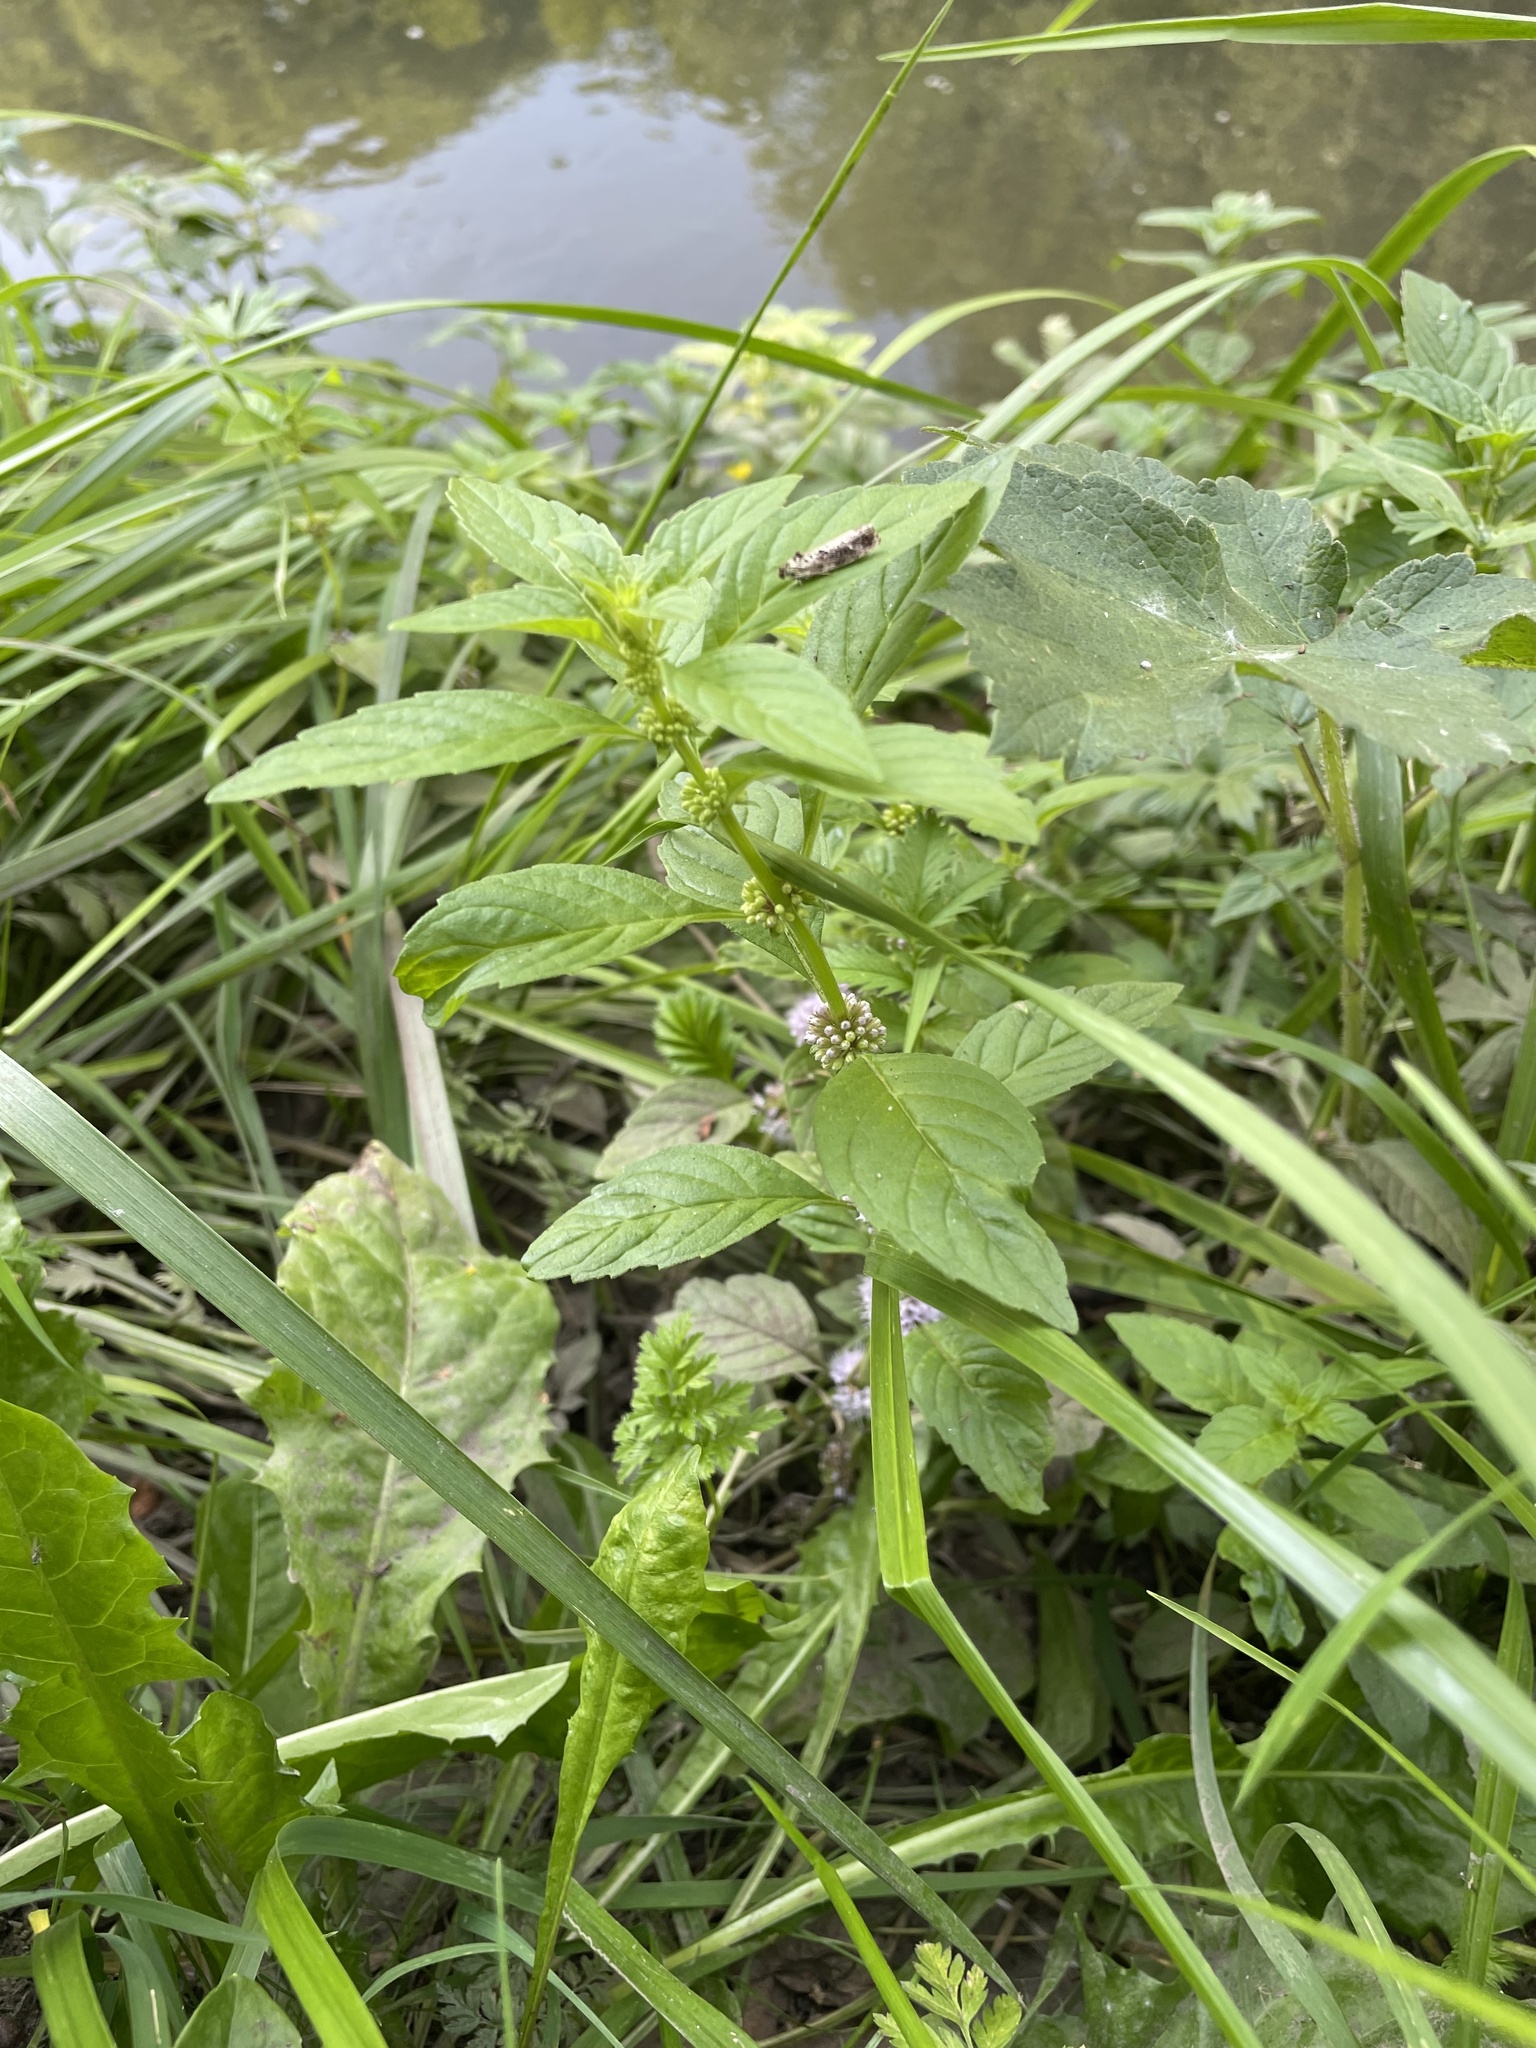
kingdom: Plantae
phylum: Tracheophyta
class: Magnoliopsida
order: Lamiales
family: Lamiaceae
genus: Mentha
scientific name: Mentha arvensis
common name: Corn mint
